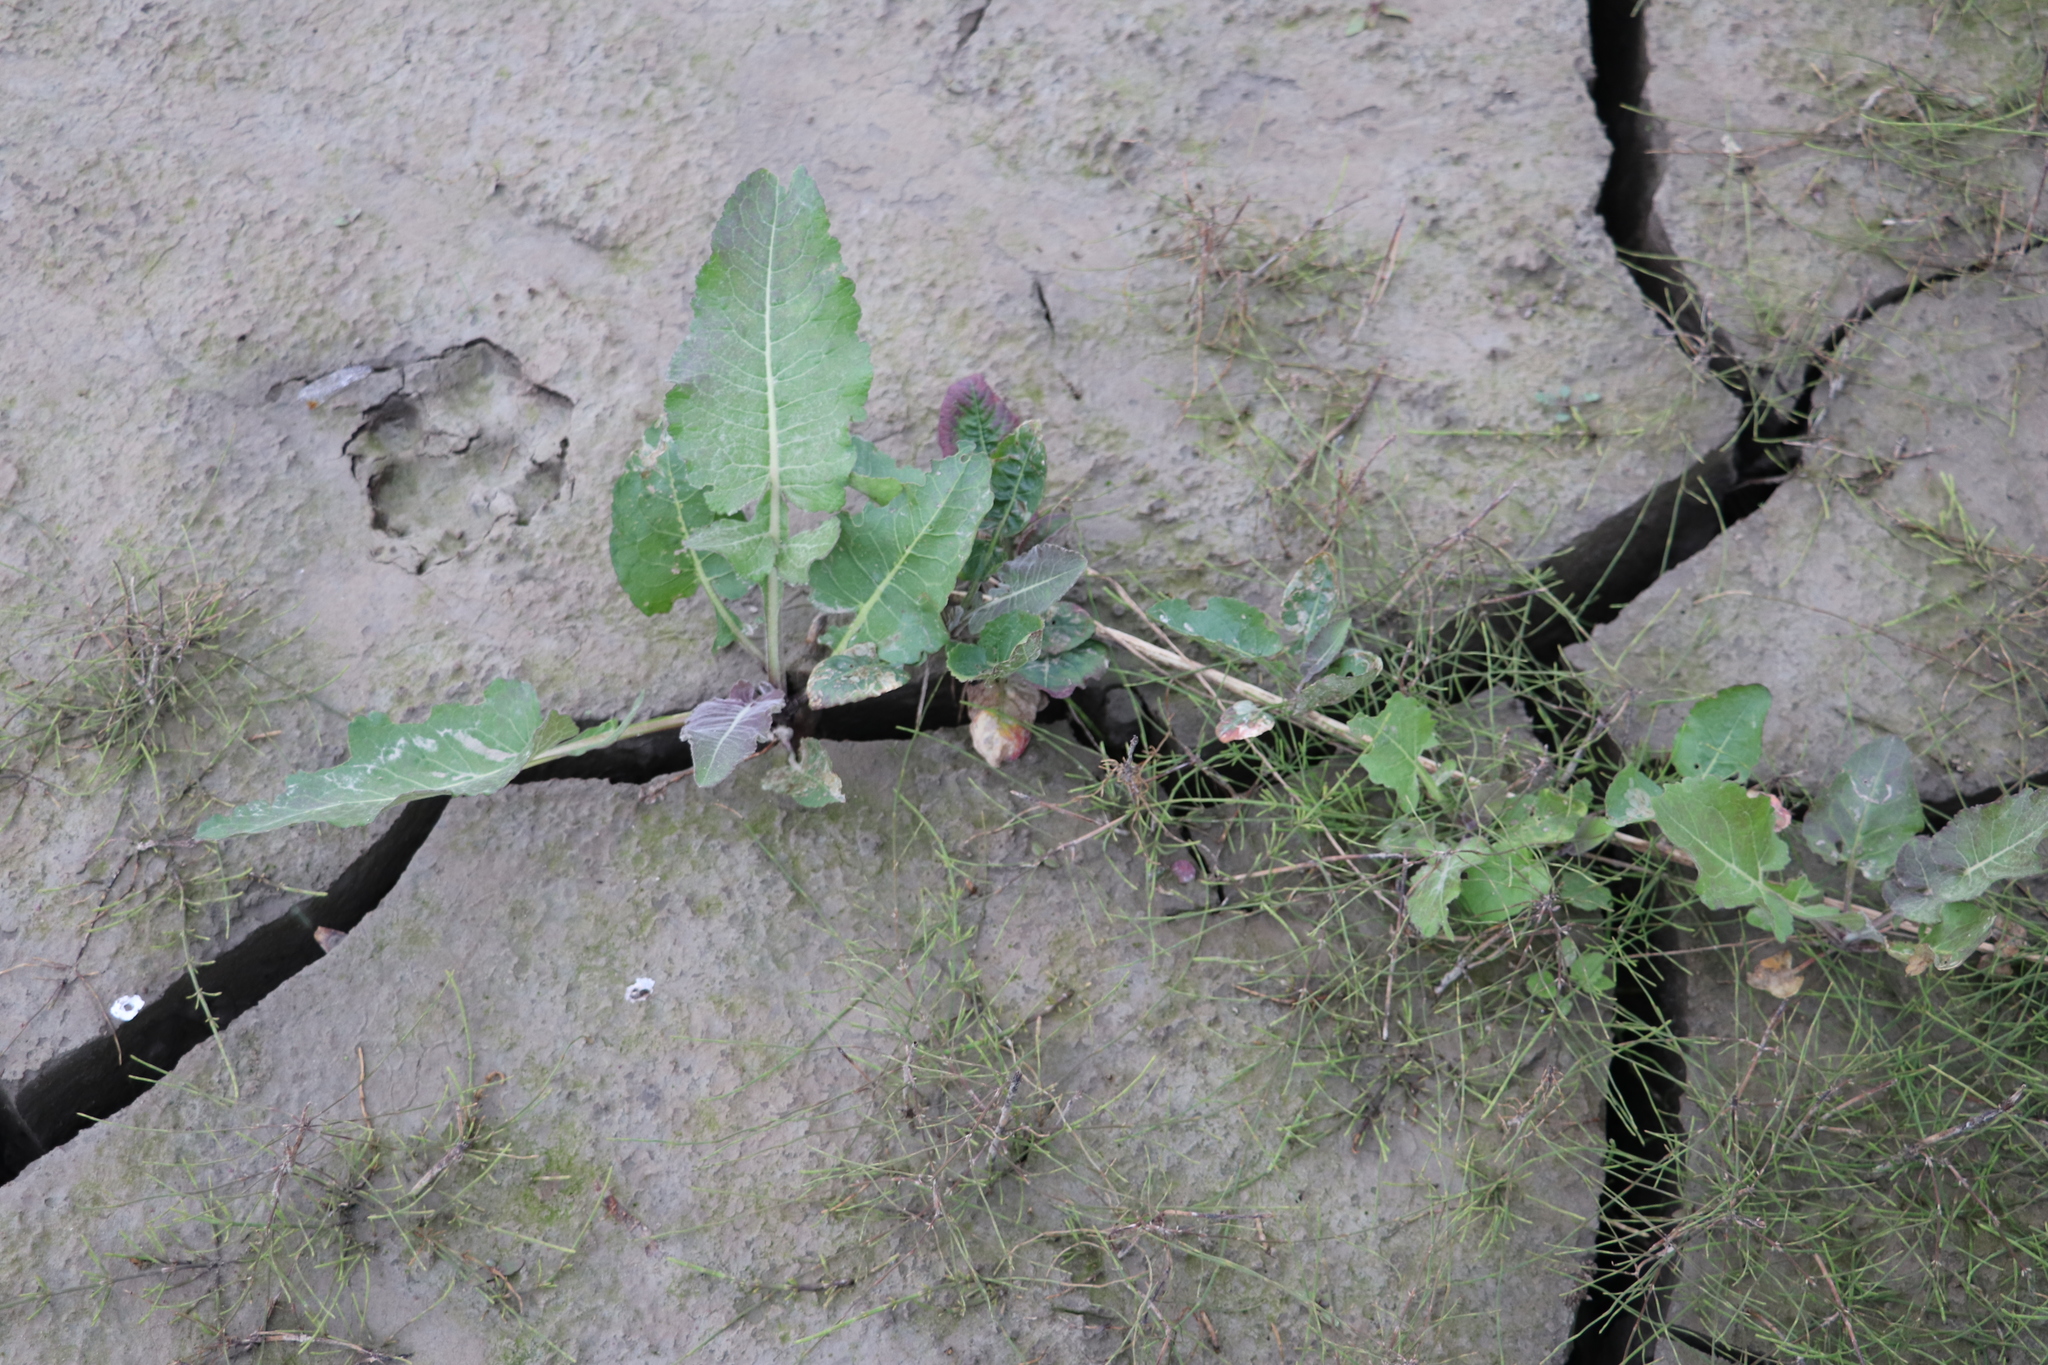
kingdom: Plantae
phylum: Tracheophyta
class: Magnoliopsida
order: Brassicales
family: Brassicaceae
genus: Rorippa
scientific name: Rorippa amphibia
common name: Great yellow-cress
